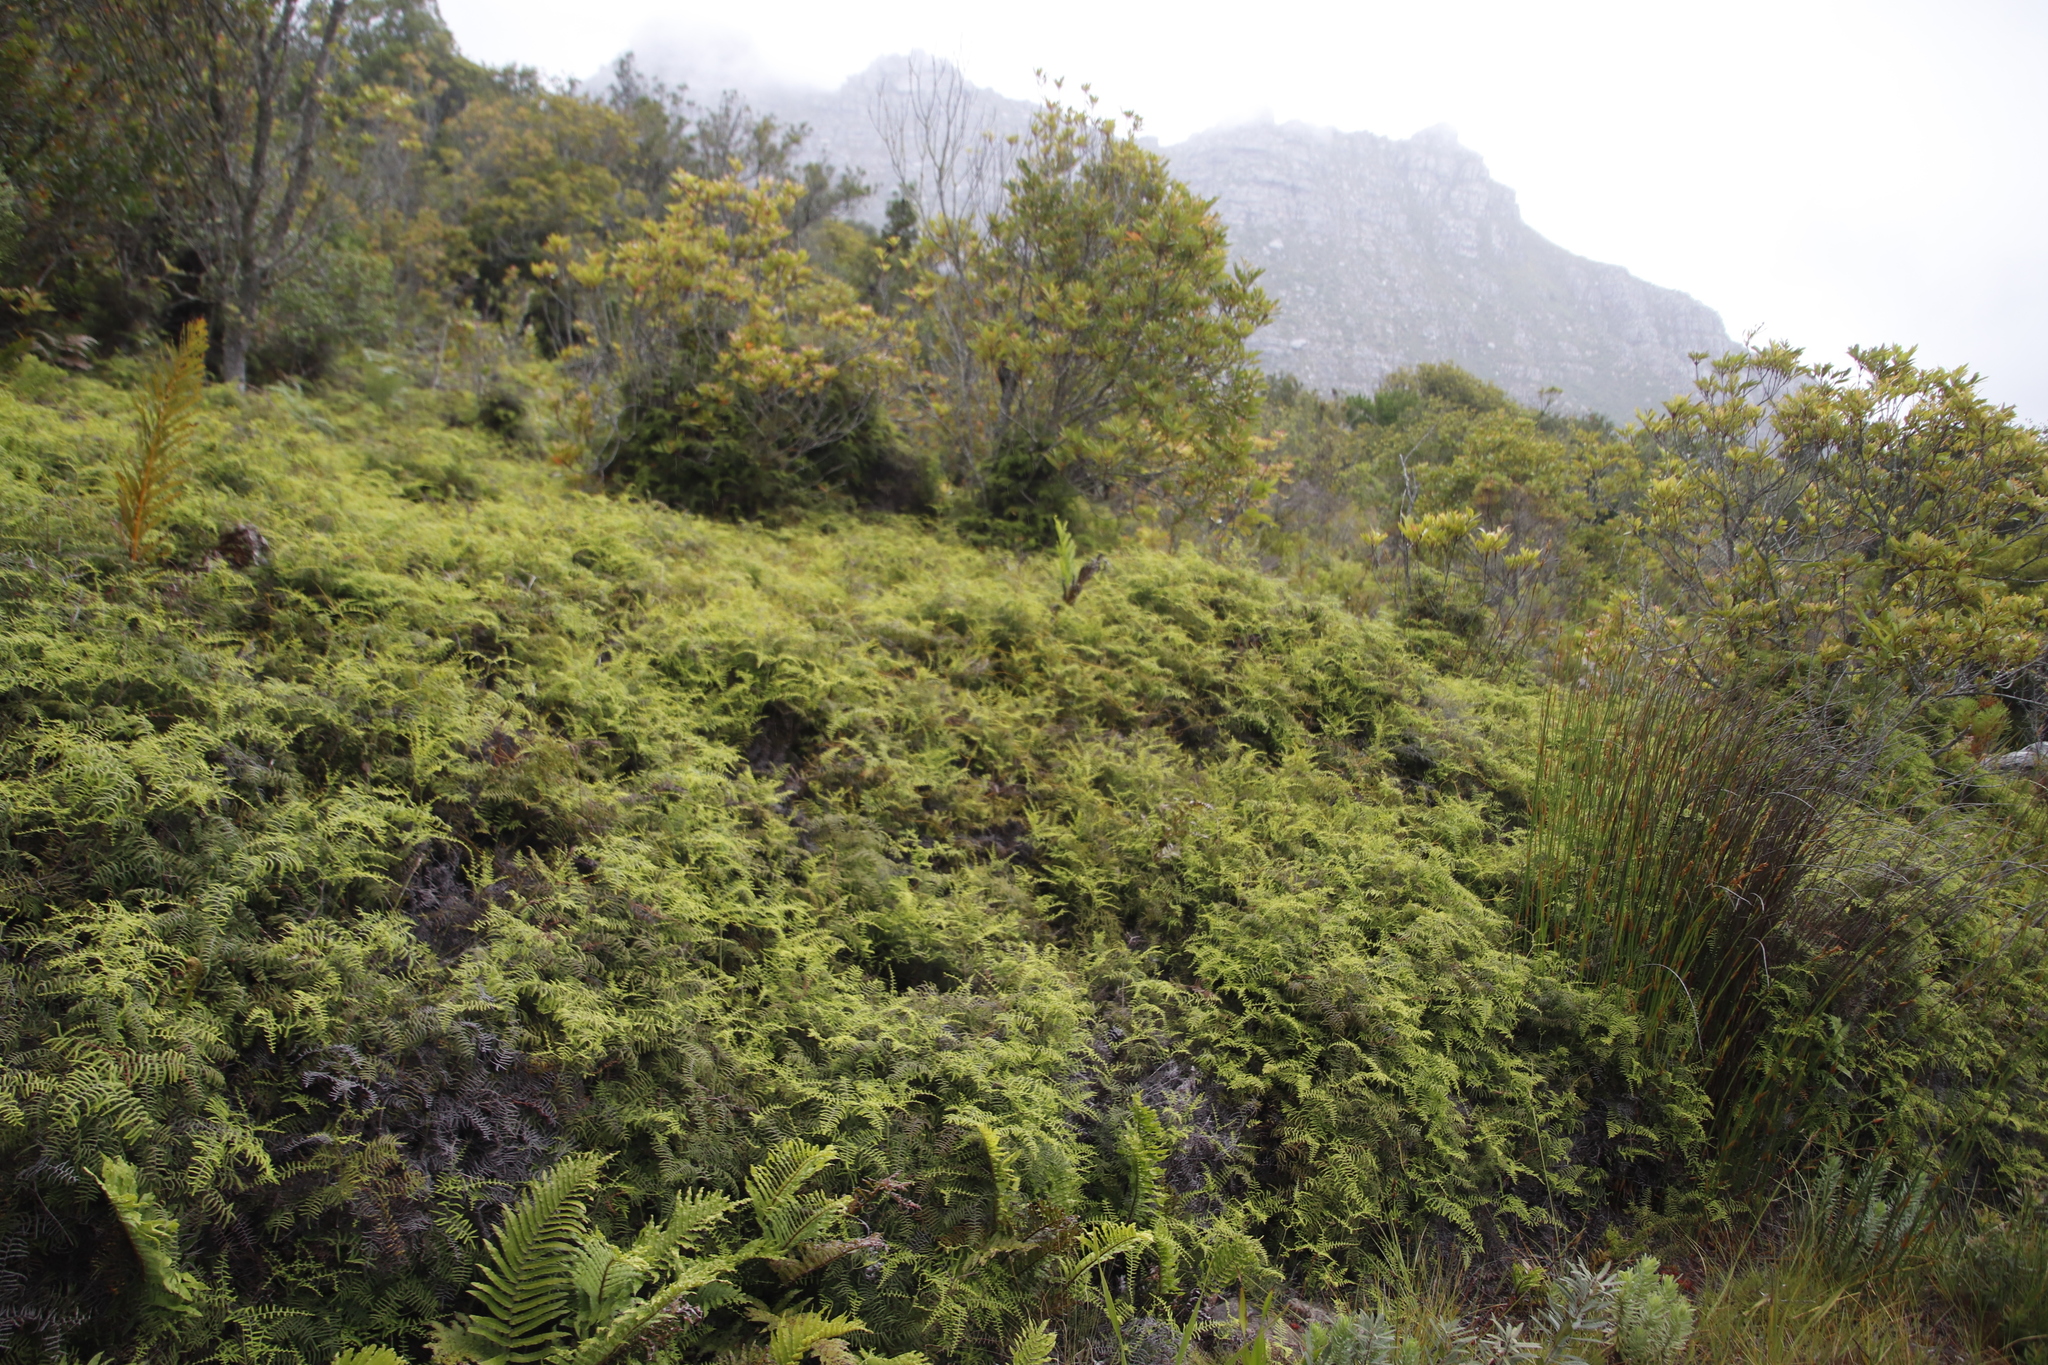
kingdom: Plantae
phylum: Tracheophyta
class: Polypodiopsida
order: Gleicheniales
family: Gleicheniaceae
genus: Gleichenia
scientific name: Gleichenia polypodioides
